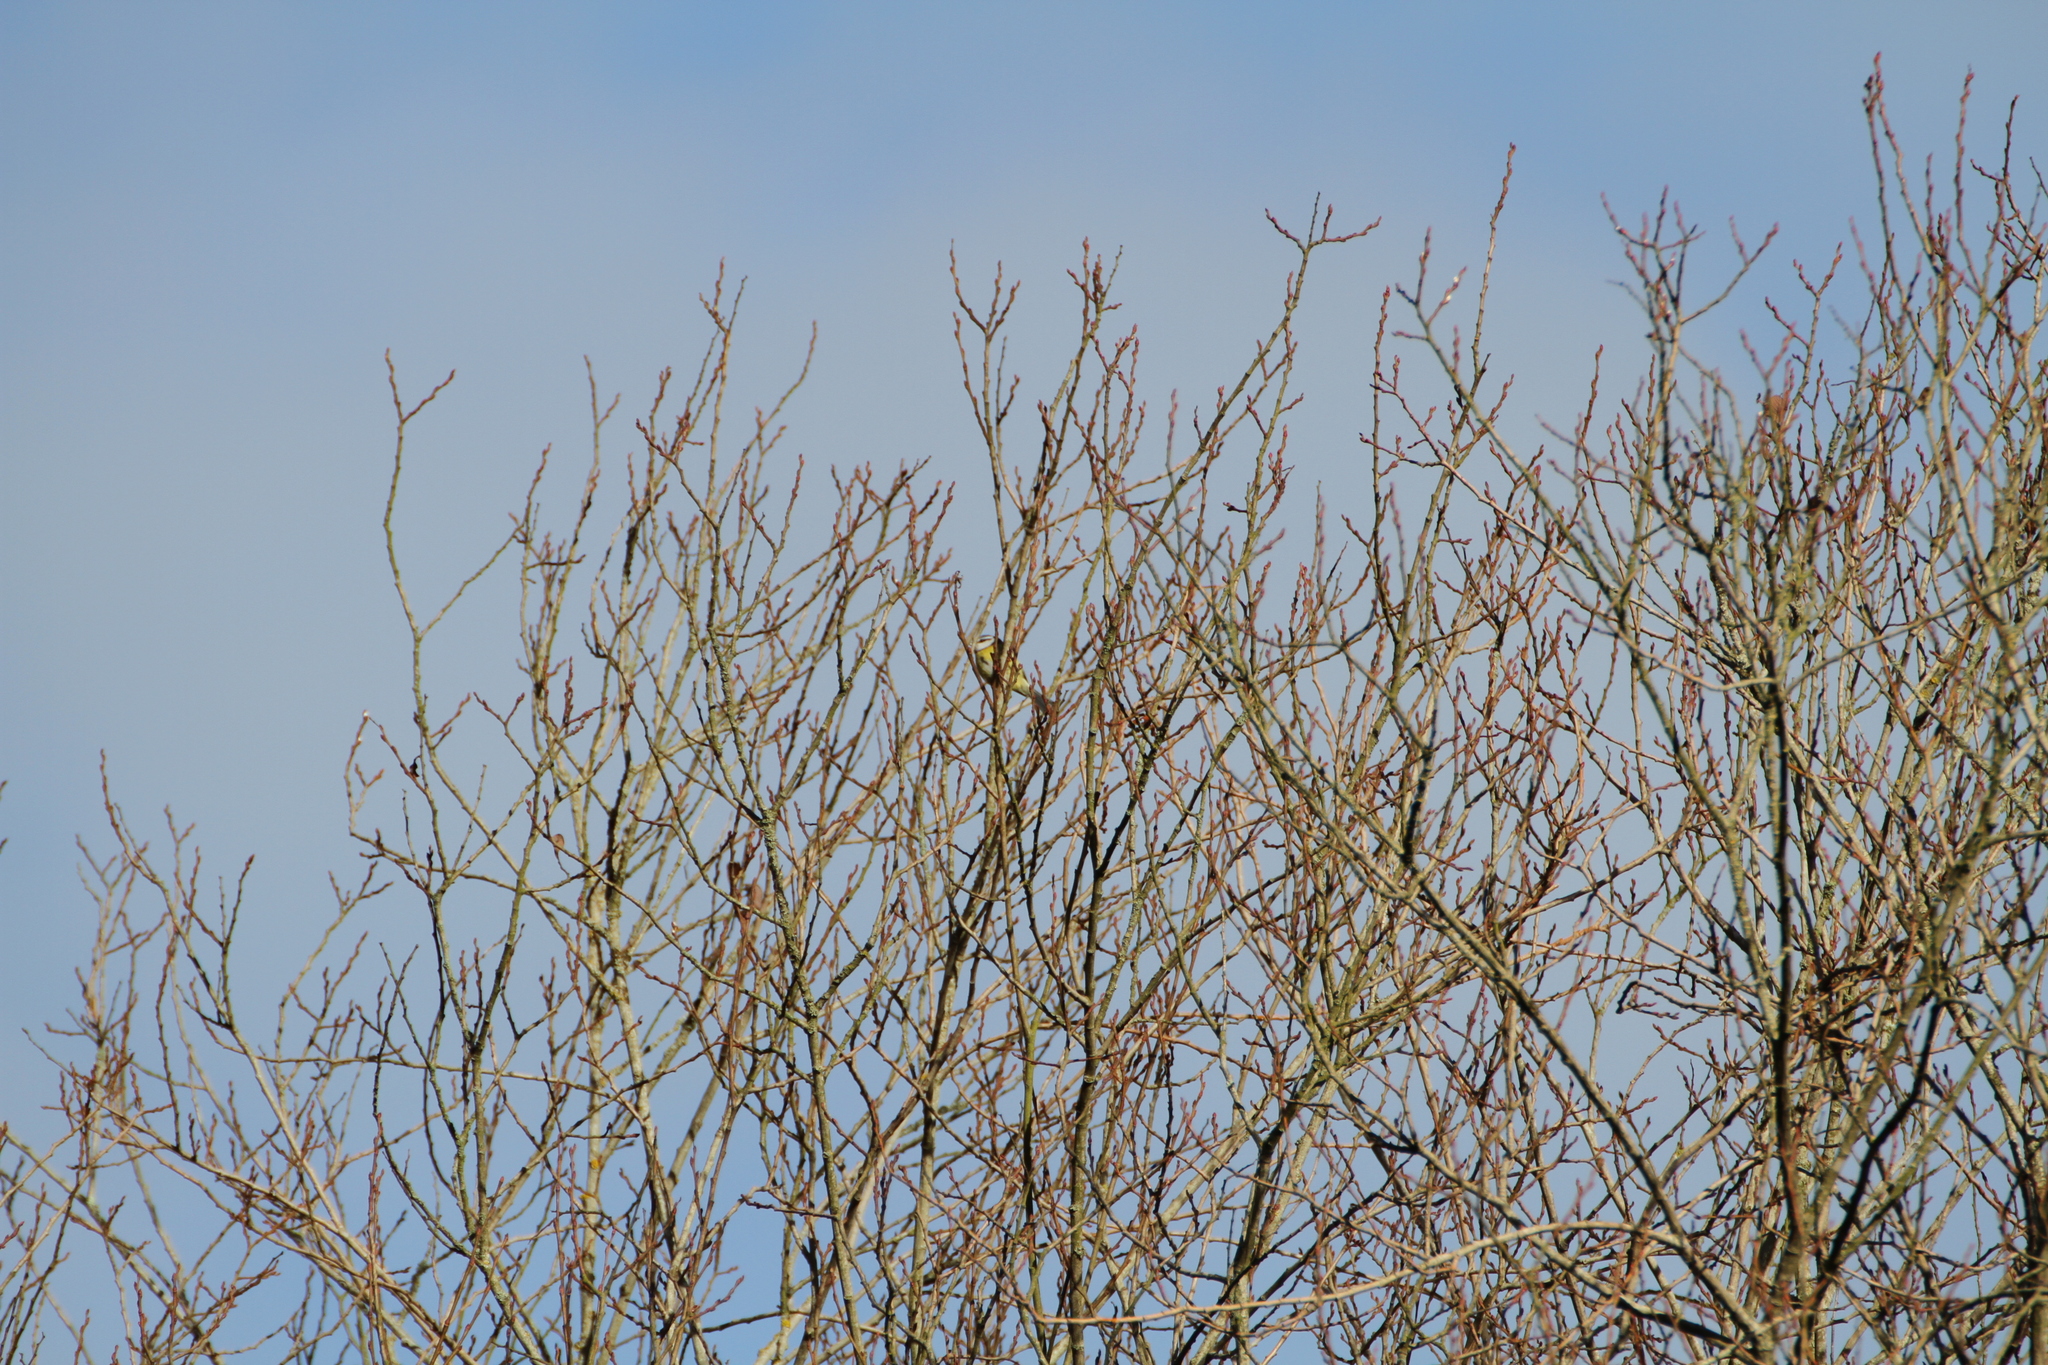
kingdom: Animalia
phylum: Chordata
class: Aves
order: Passeriformes
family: Paridae
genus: Cyanistes
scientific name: Cyanistes caeruleus
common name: Eurasian blue tit
